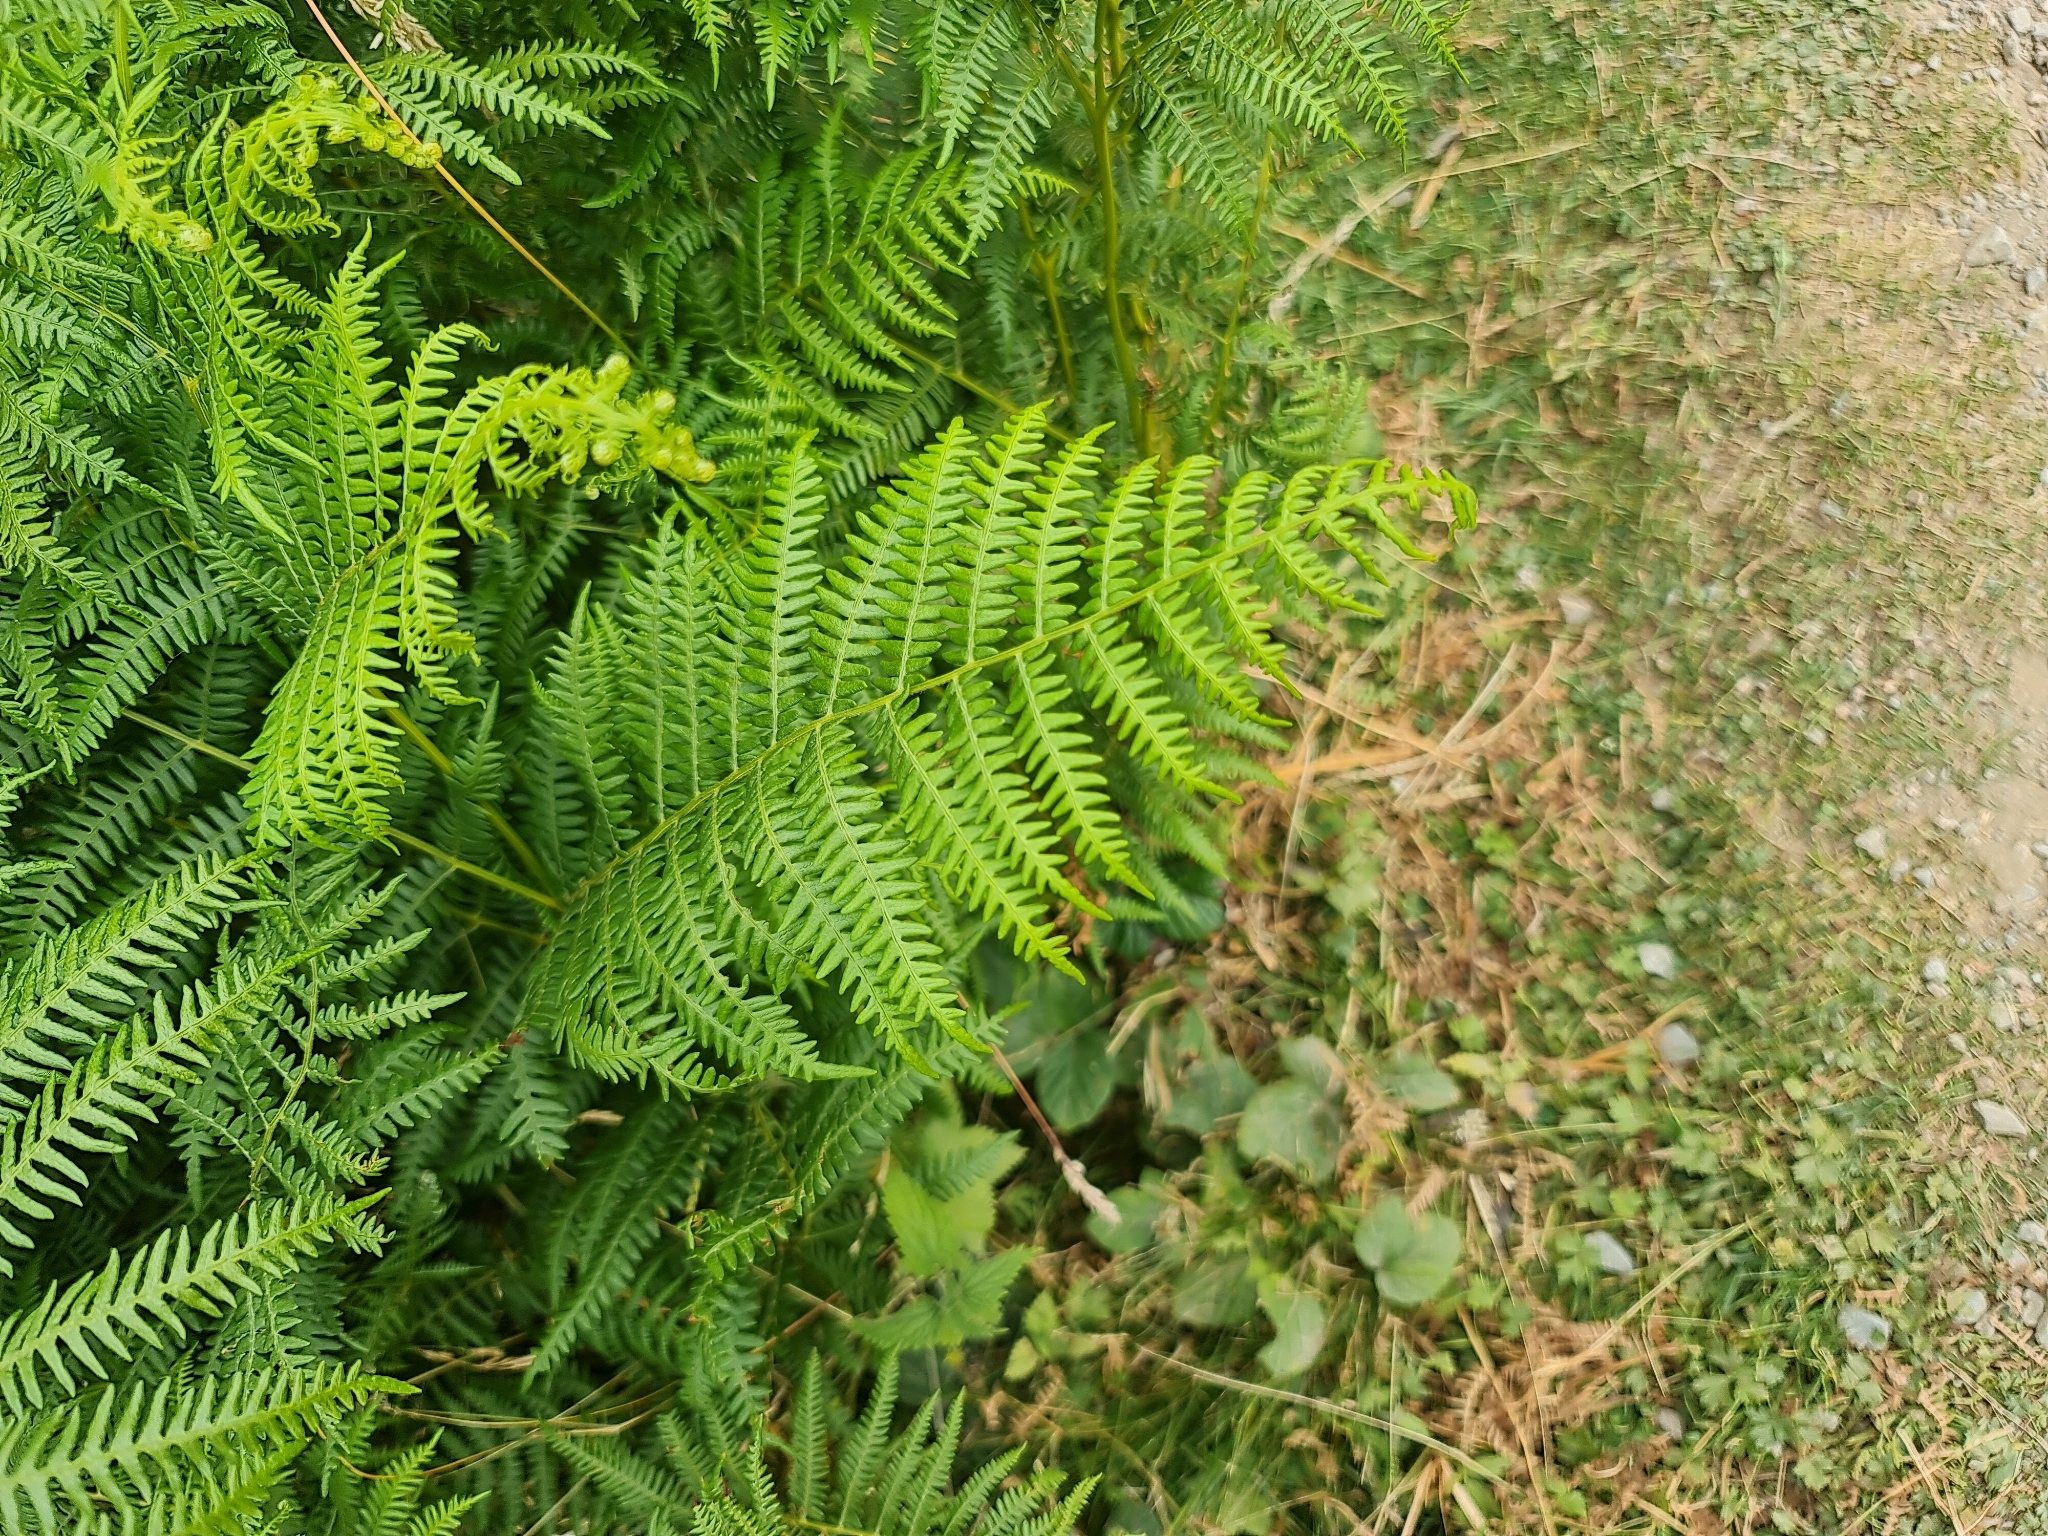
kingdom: Plantae
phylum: Tracheophyta
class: Polypodiopsida
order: Polypodiales
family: Dennstaedtiaceae
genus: Pteridium
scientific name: Pteridium aquilinum
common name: Bracken
